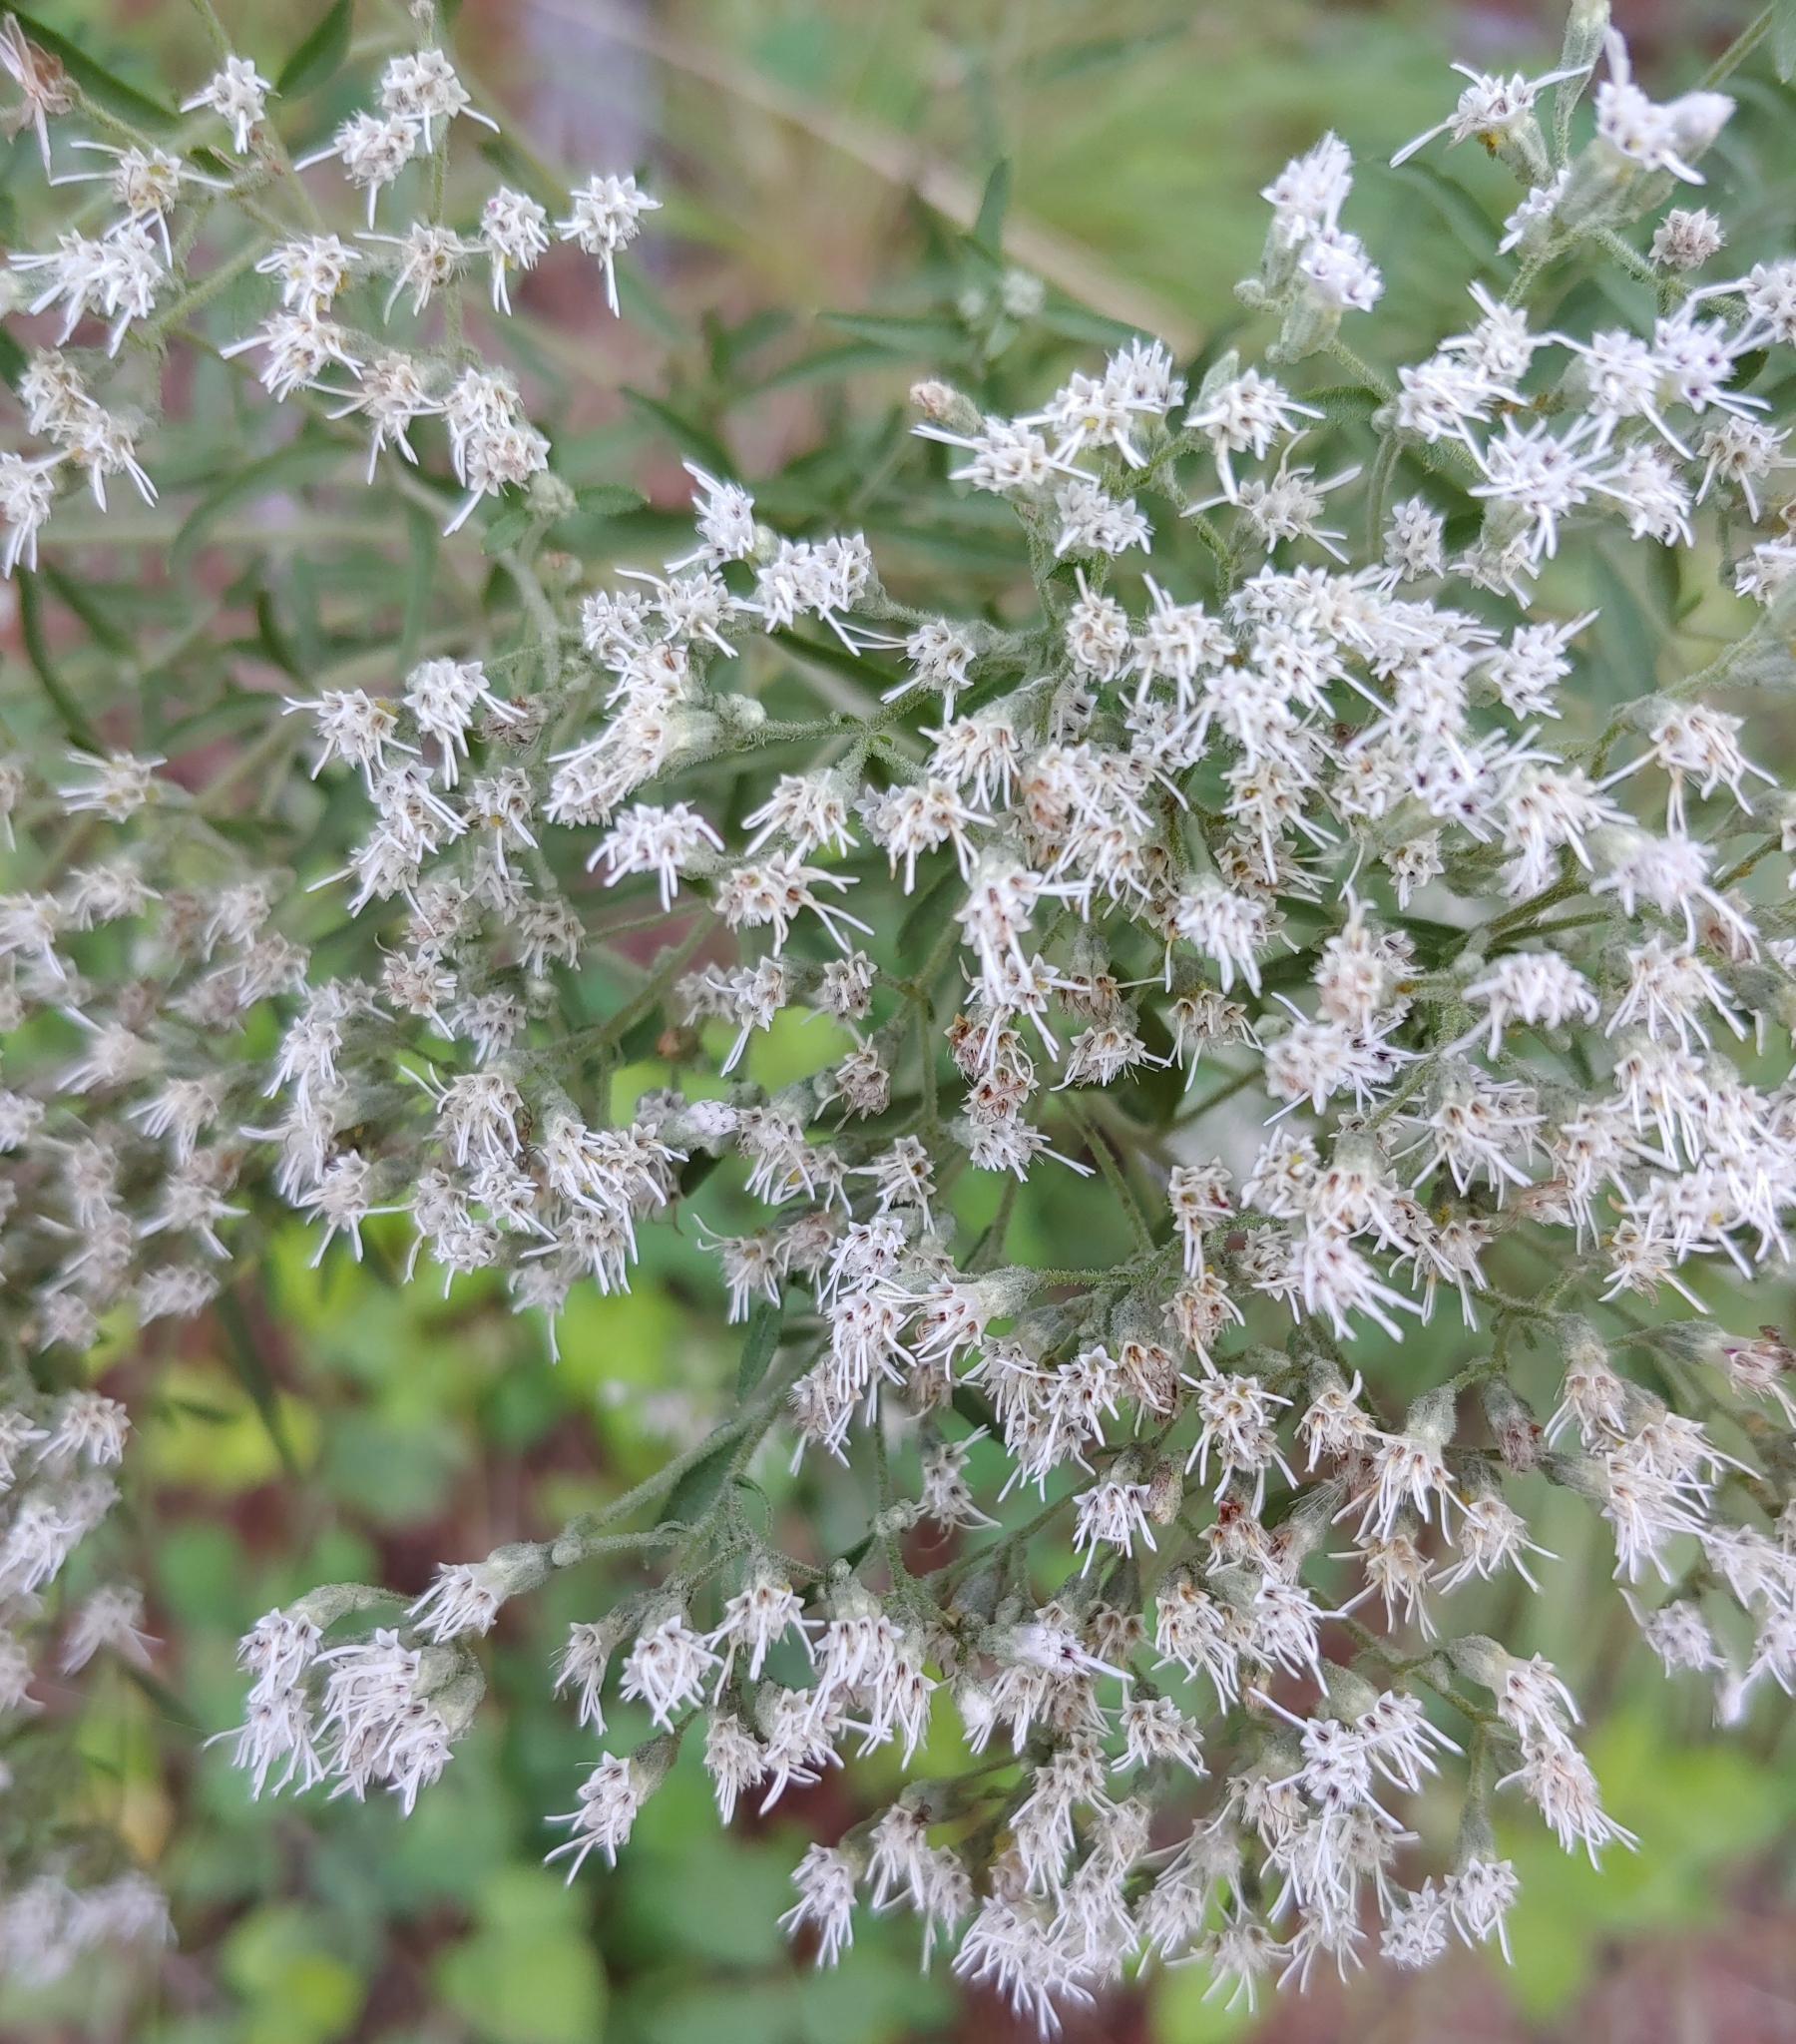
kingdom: Plantae
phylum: Tracheophyta
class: Magnoliopsida
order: Asterales
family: Asteraceae
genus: Eupatorium
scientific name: Eupatorium torreyanum
